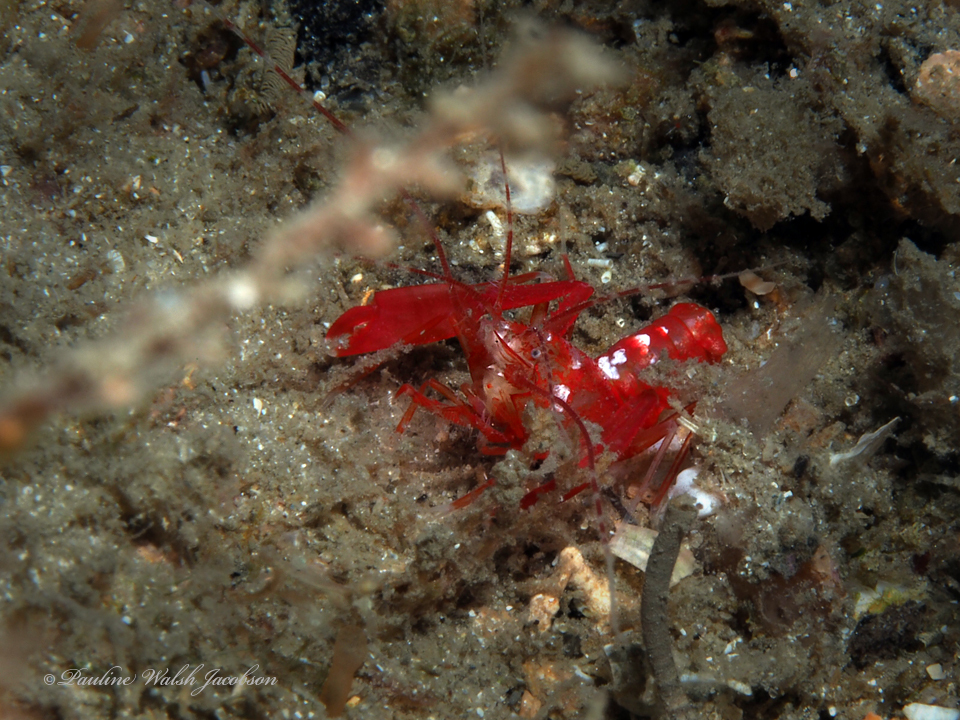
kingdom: Animalia
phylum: Arthropoda
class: Malacostraca
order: Decapoda
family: Spongicolidae
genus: Microprosthema
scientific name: Microprosthema semilaeve
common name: Scarlet stenopodid
